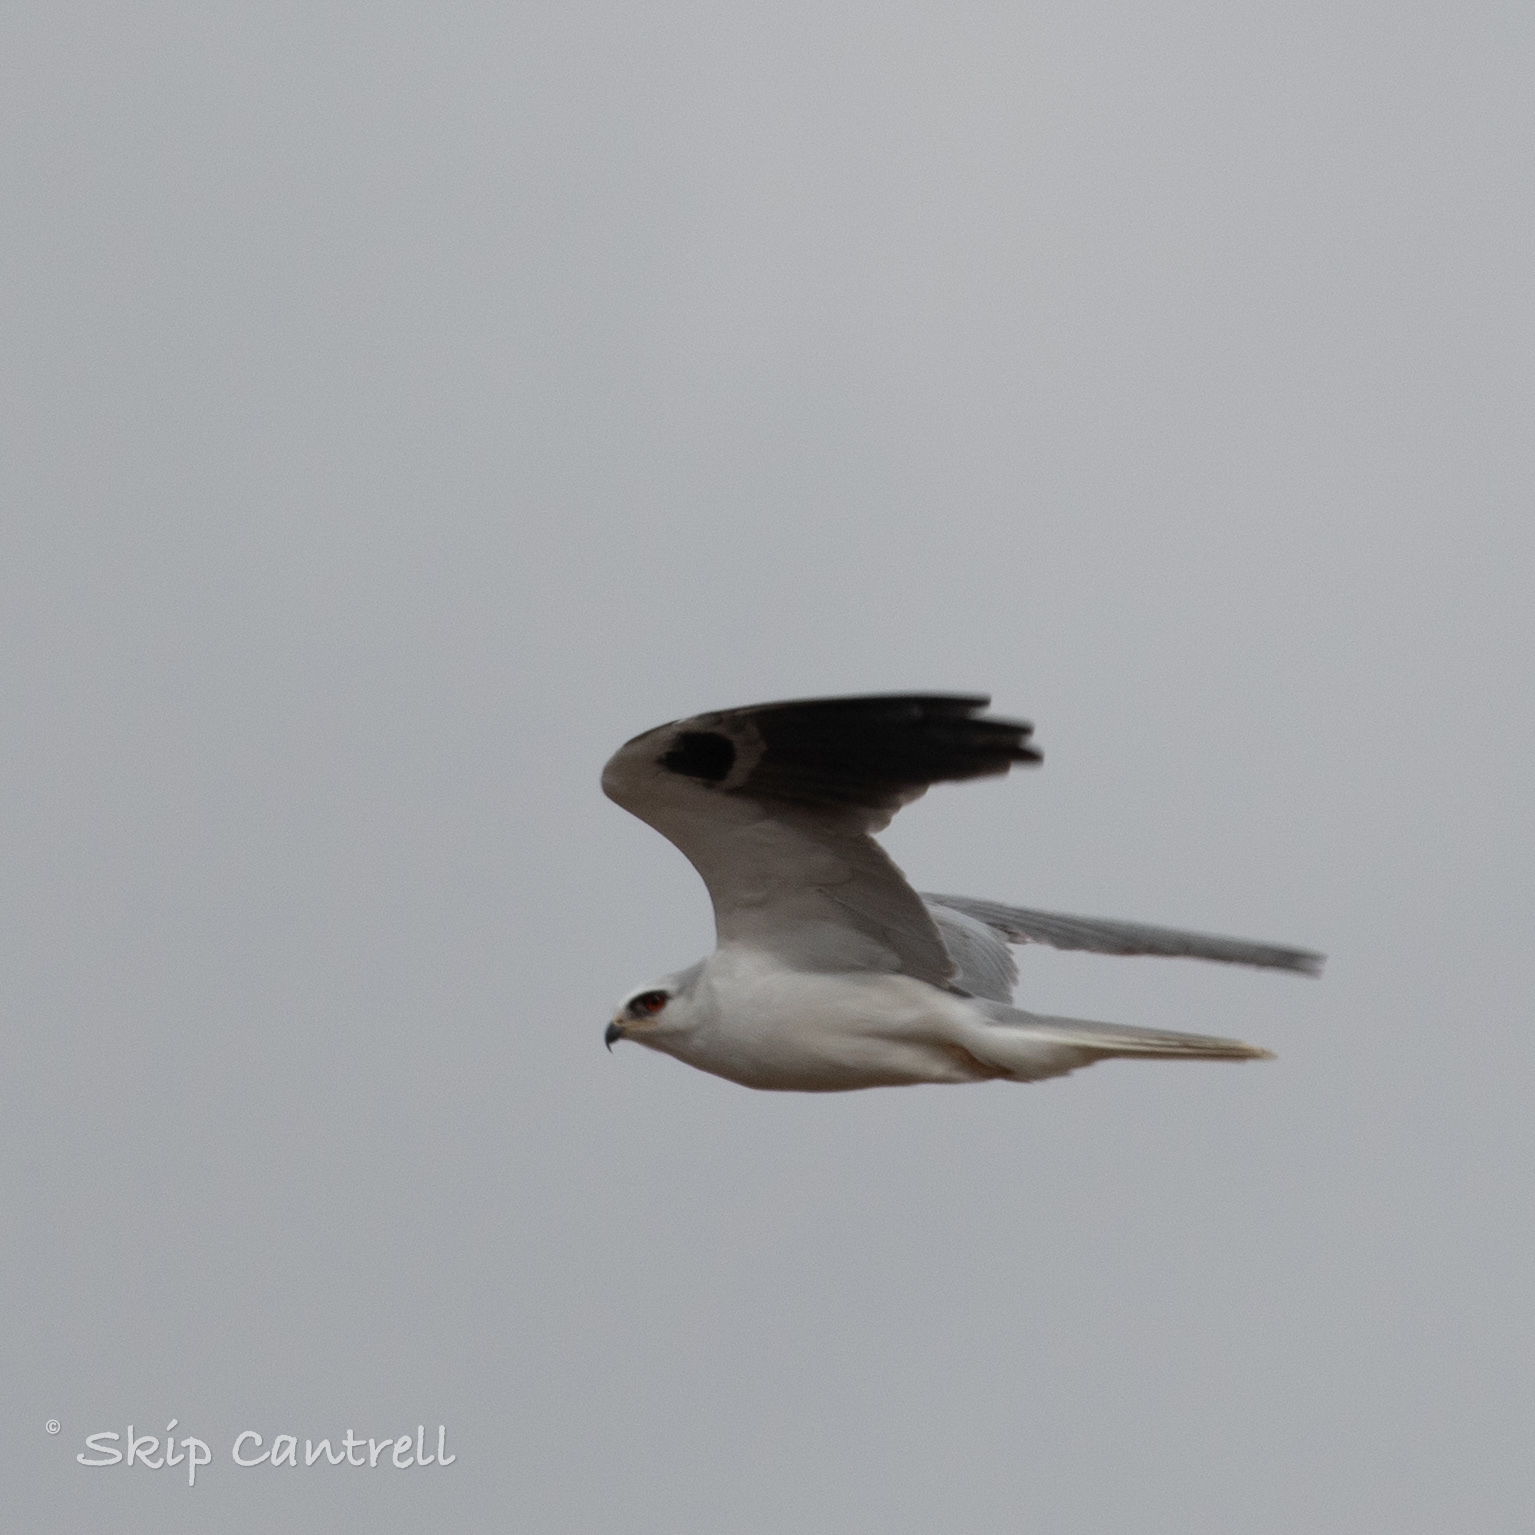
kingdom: Animalia
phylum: Chordata
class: Aves
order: Accipitriformes
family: Accipitridae
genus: Elanus
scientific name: Elanus leucurus
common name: White-tailed kite
